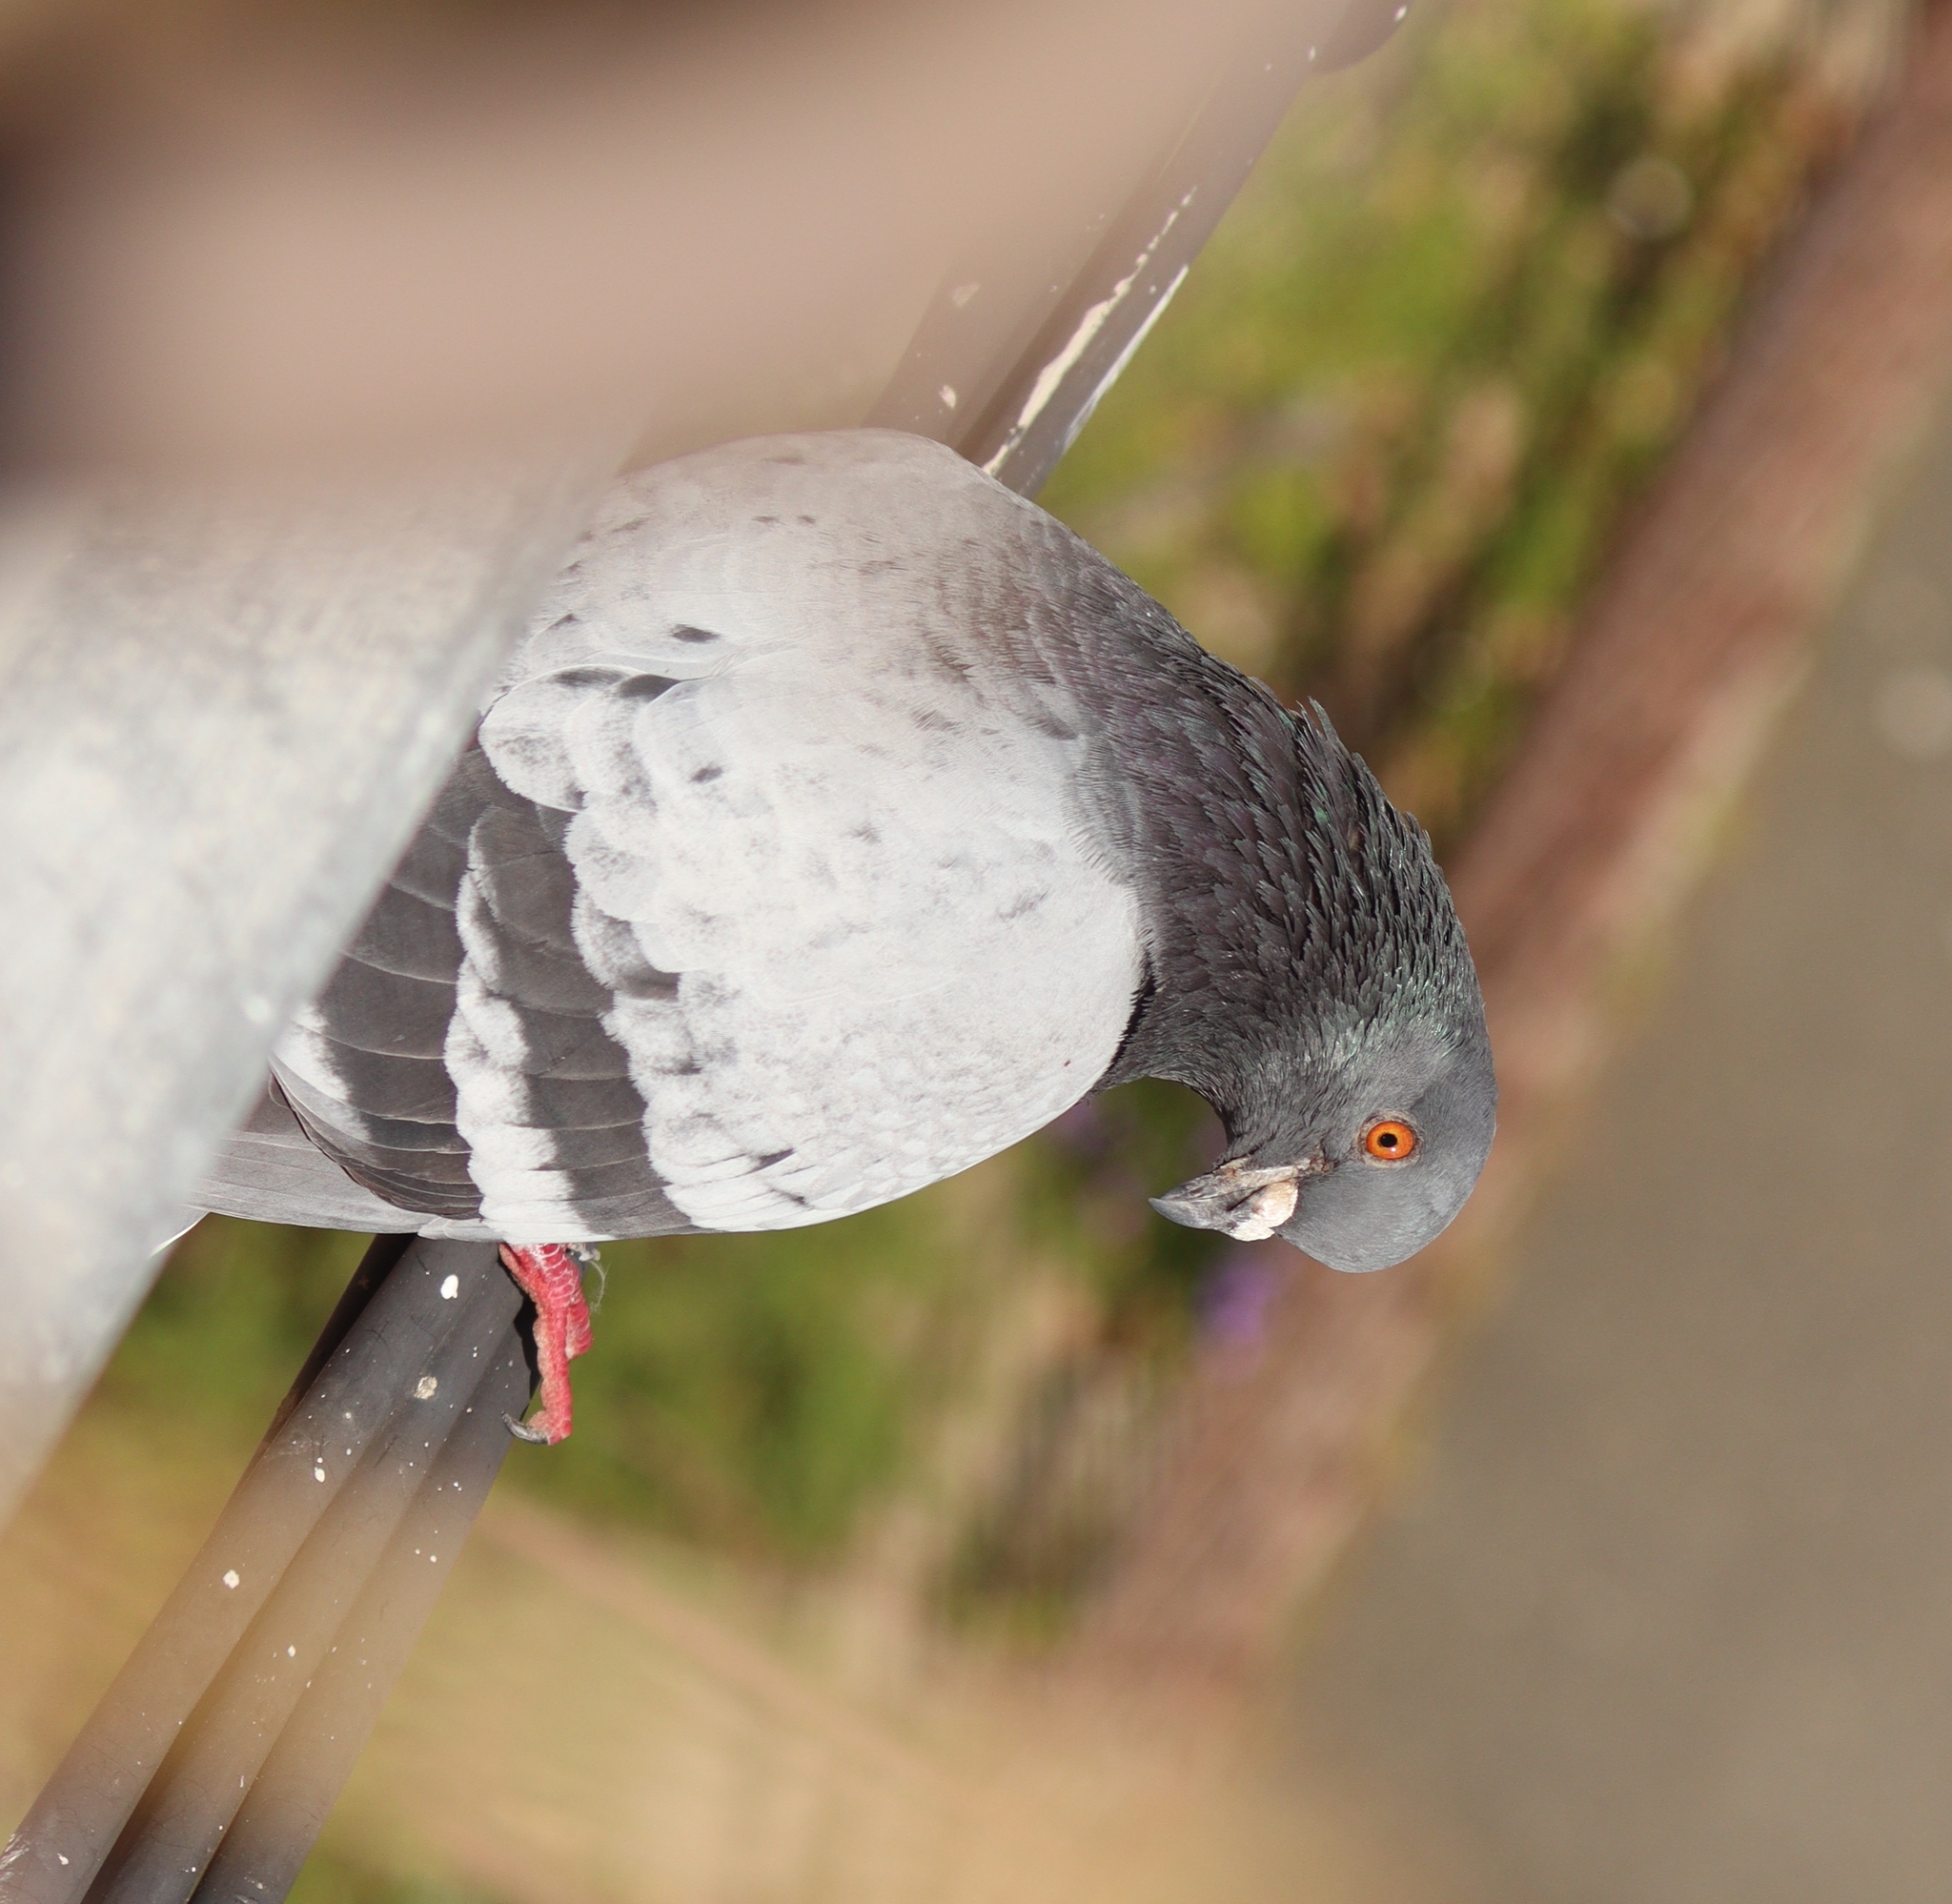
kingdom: Animalia
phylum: Chordata
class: Aves
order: Columbiformes
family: Columbidae
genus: Columba
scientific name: Columba livia
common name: Rock pigeon
